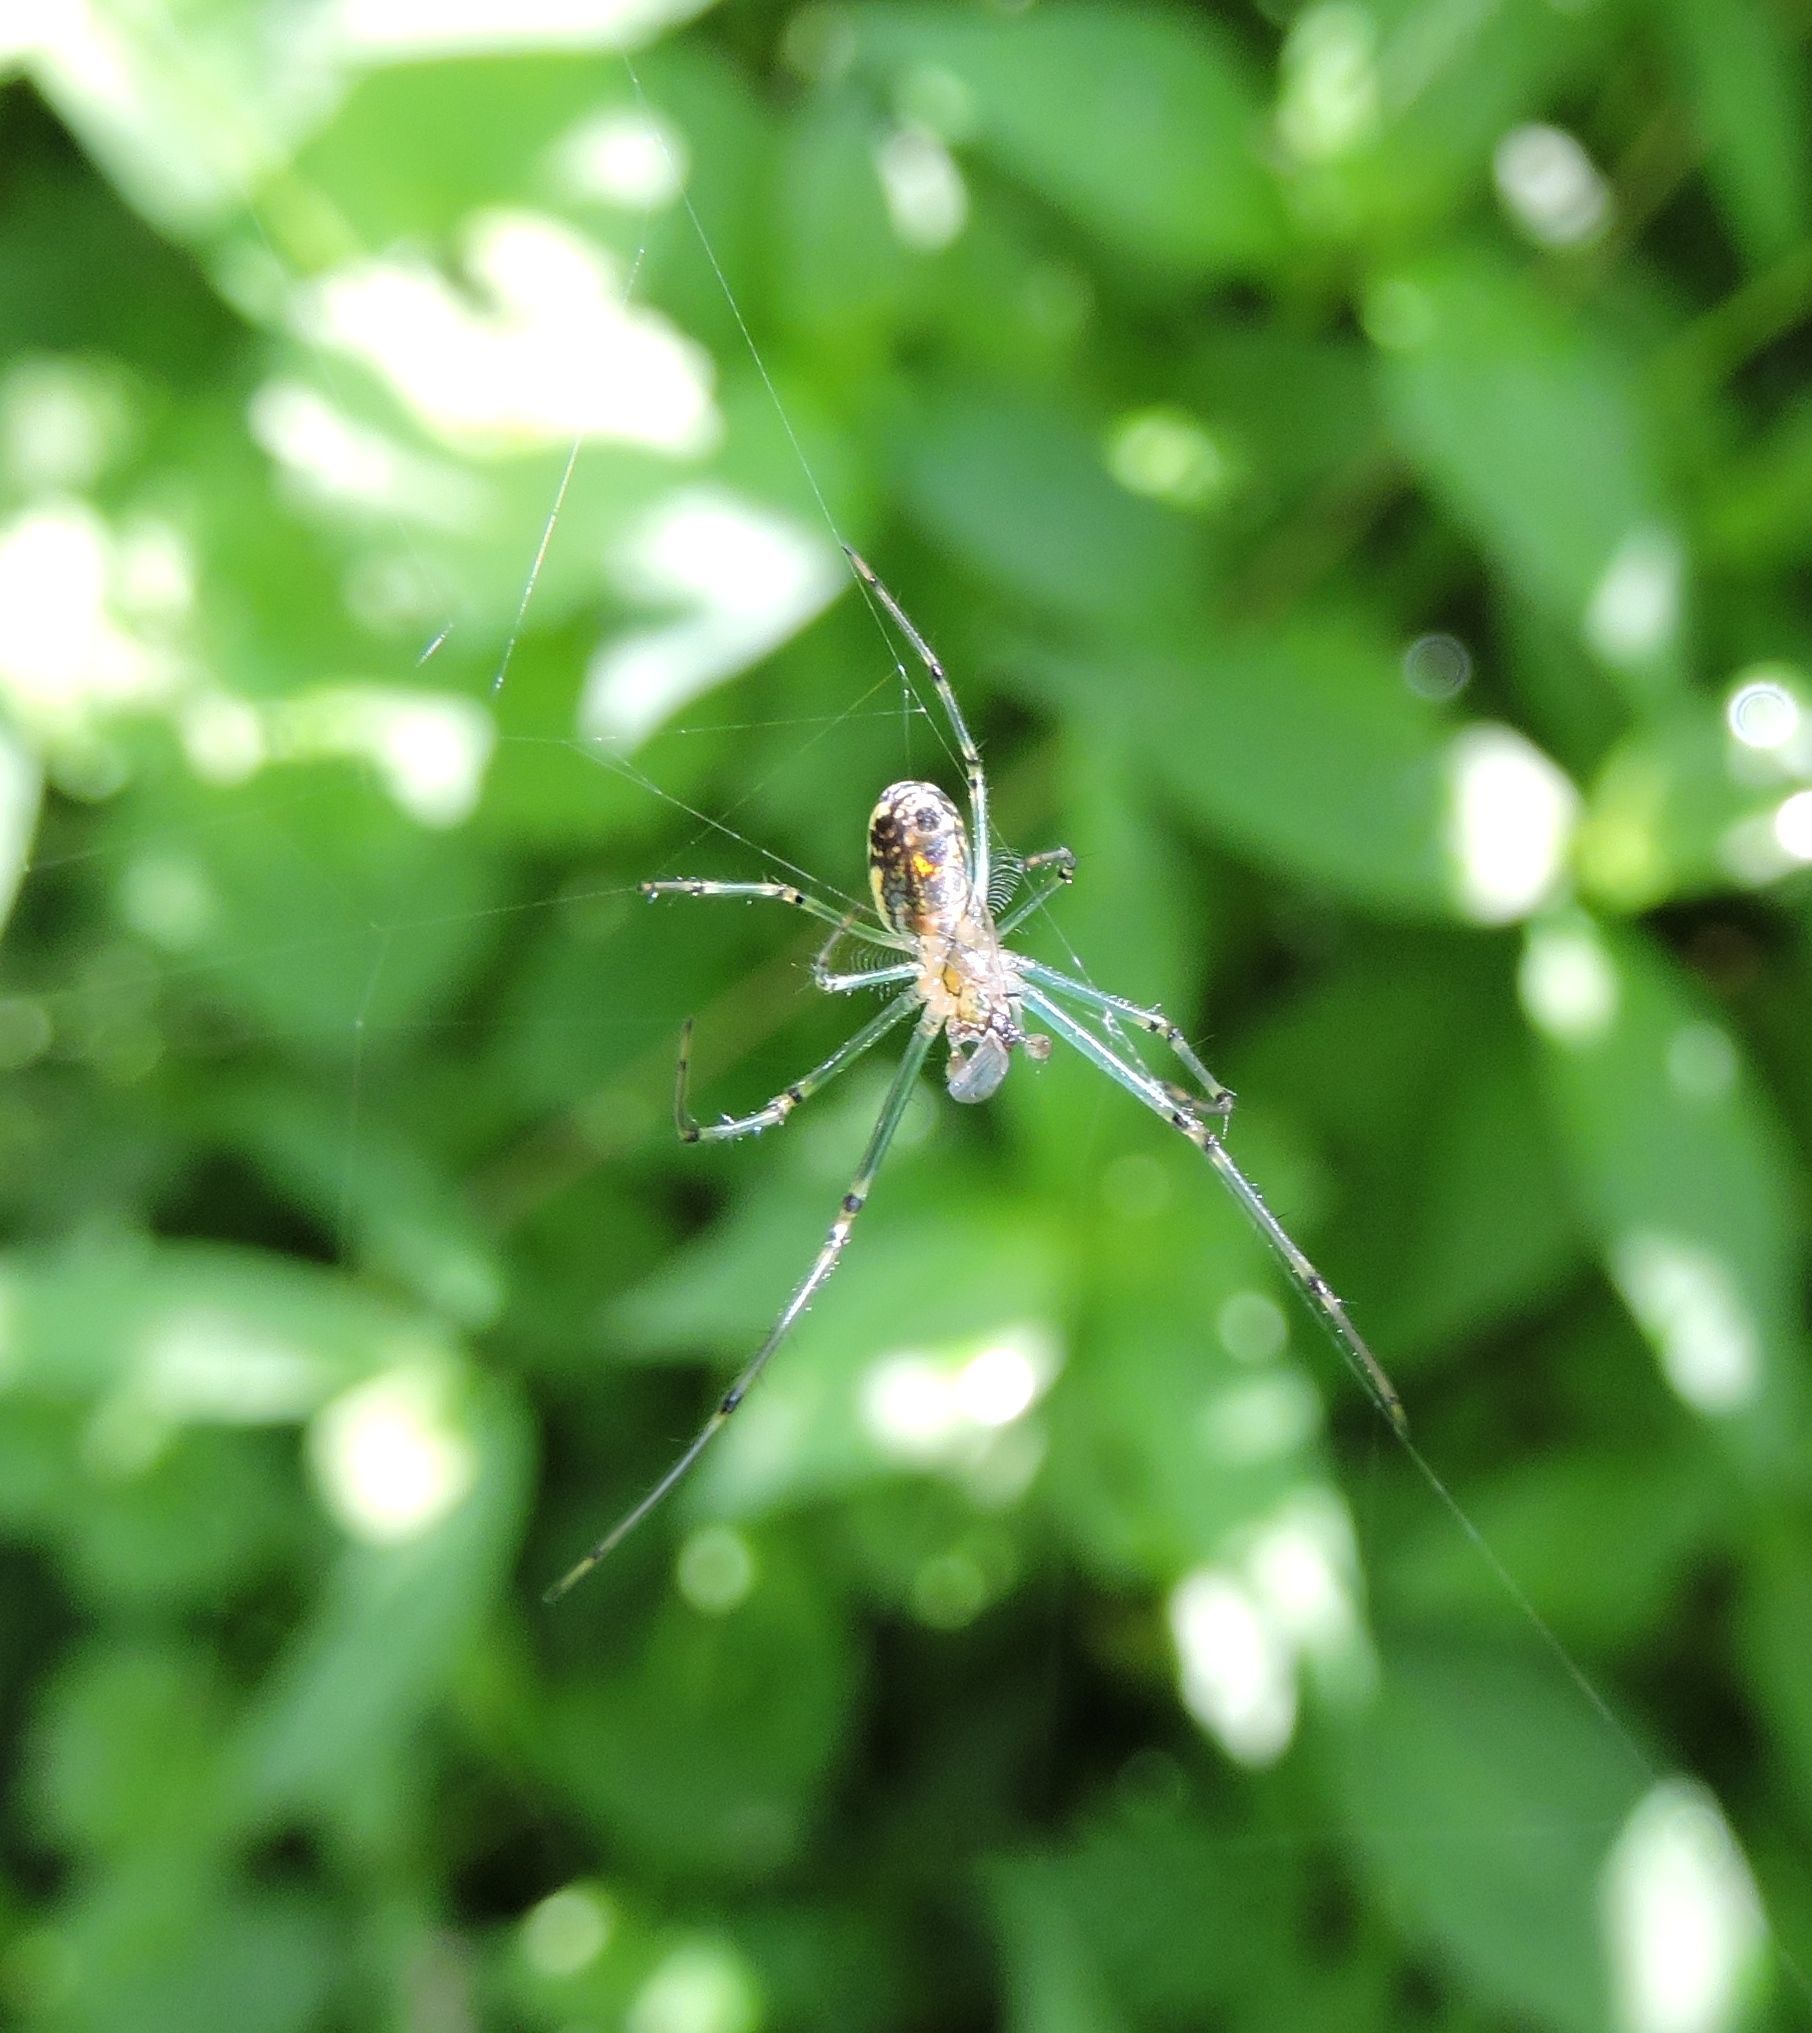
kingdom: Animalia
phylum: Arthropoda
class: Arachnida
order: Araneae
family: Tetragnathidae
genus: Leucauge
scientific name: Leucauge venusta
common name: Longjawed orb weavers
